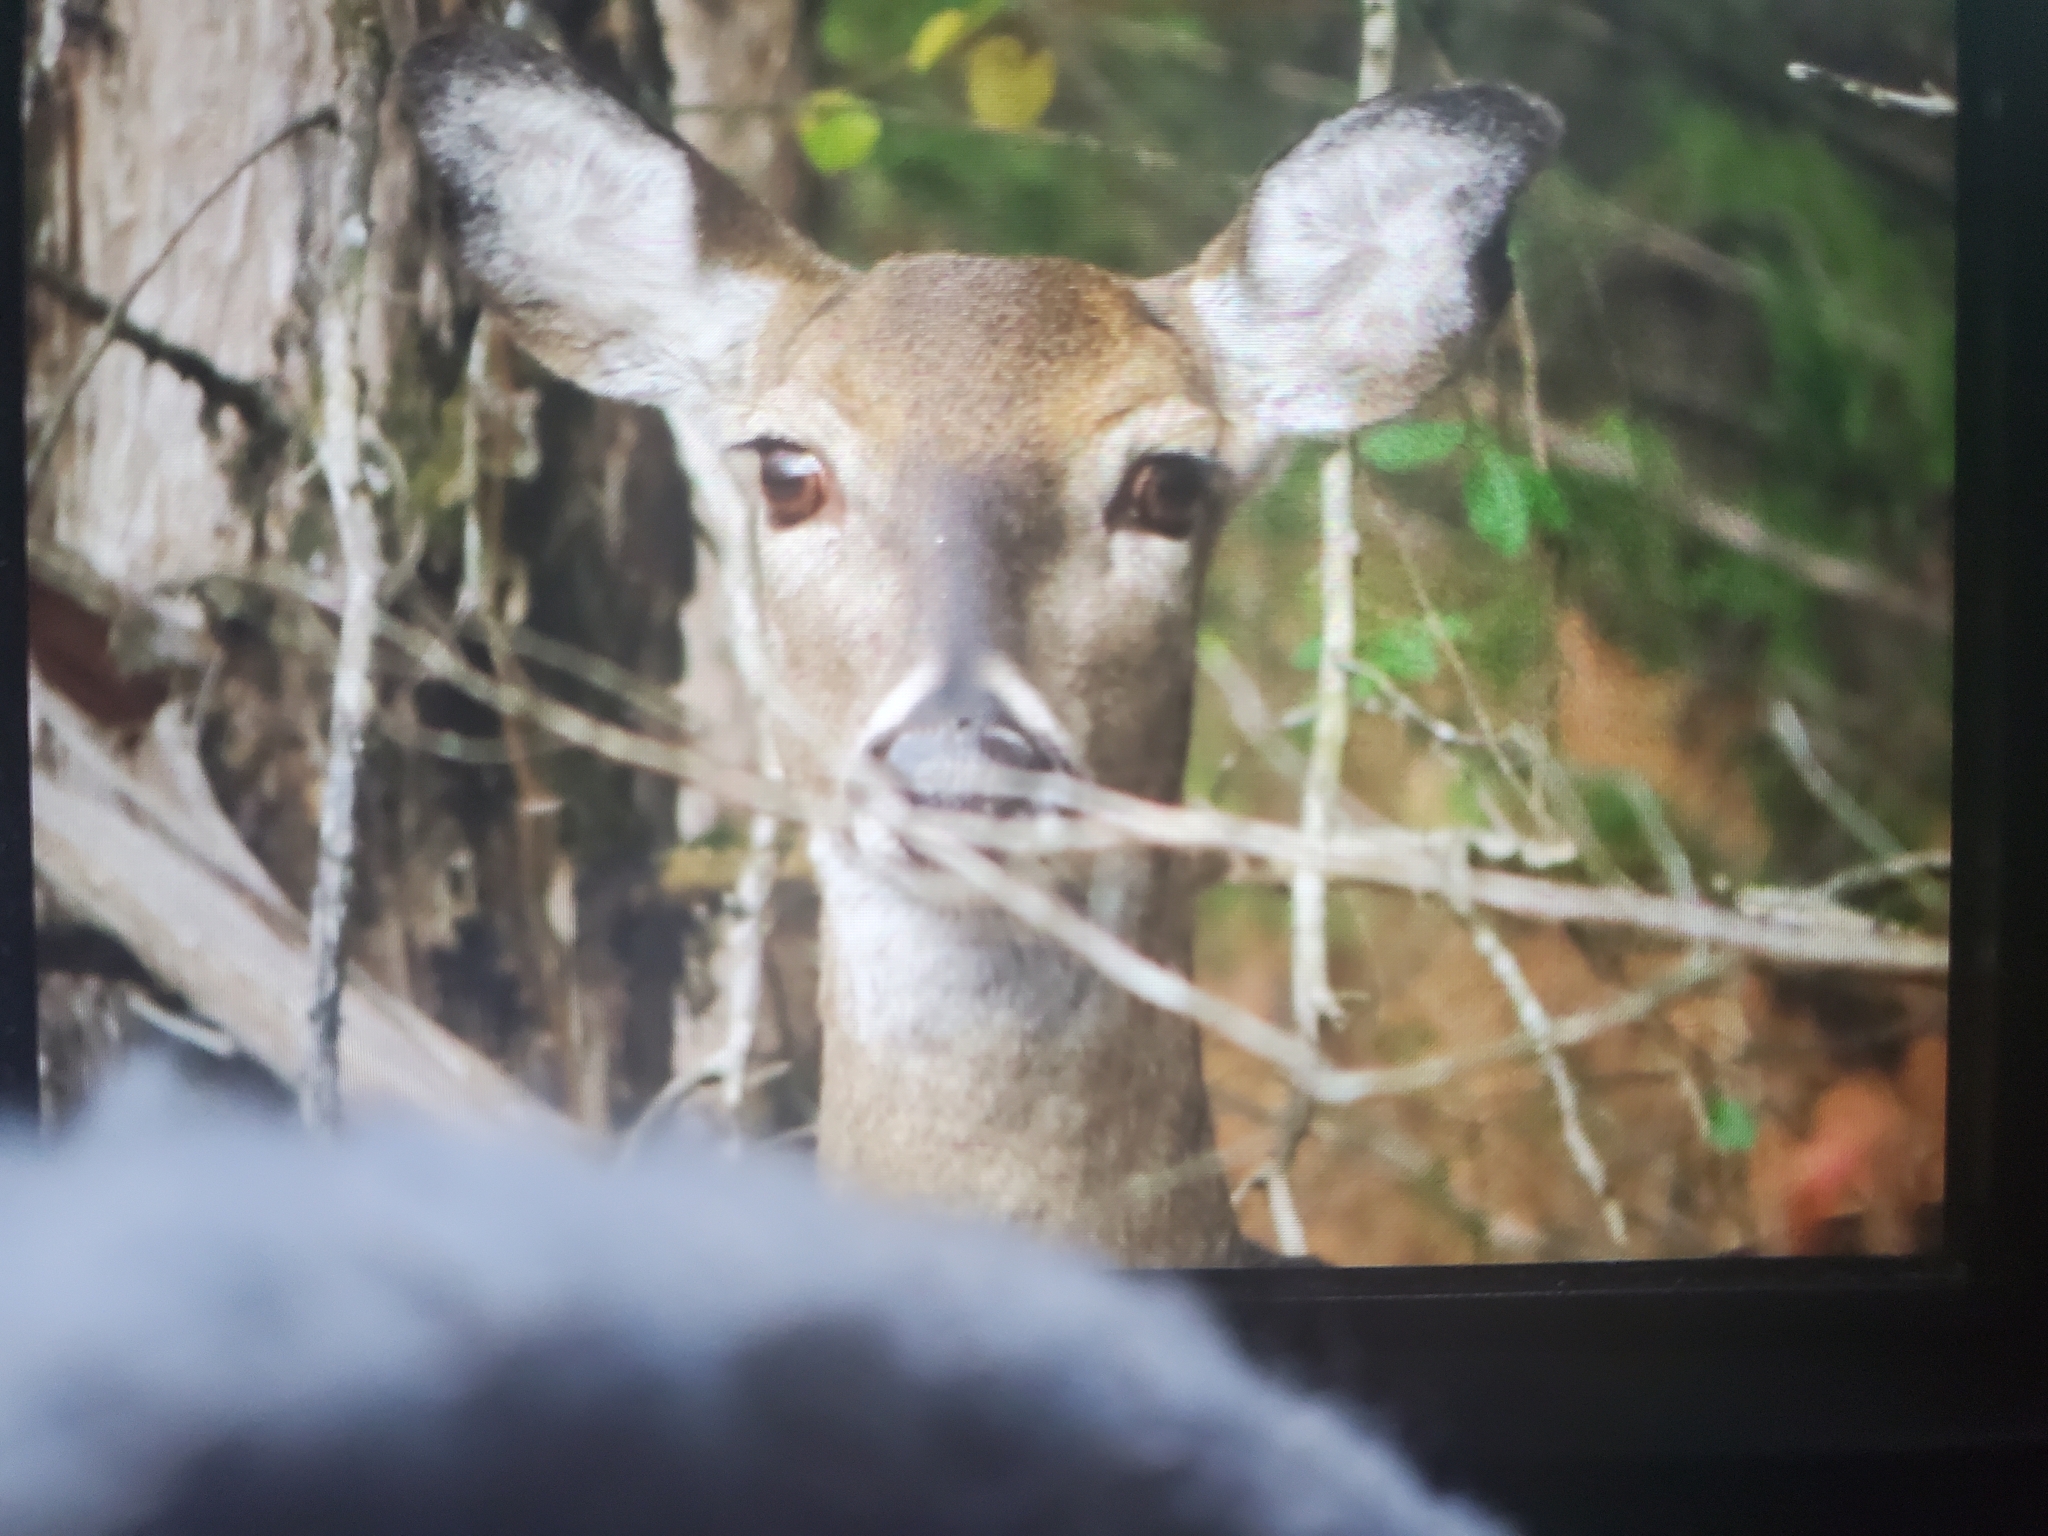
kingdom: Animalia
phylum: Chordata
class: Mammalia
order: Artiodactyla
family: Cervidae
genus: Odocoileus
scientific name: Odocoileus virginianus
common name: White-tailed deer
